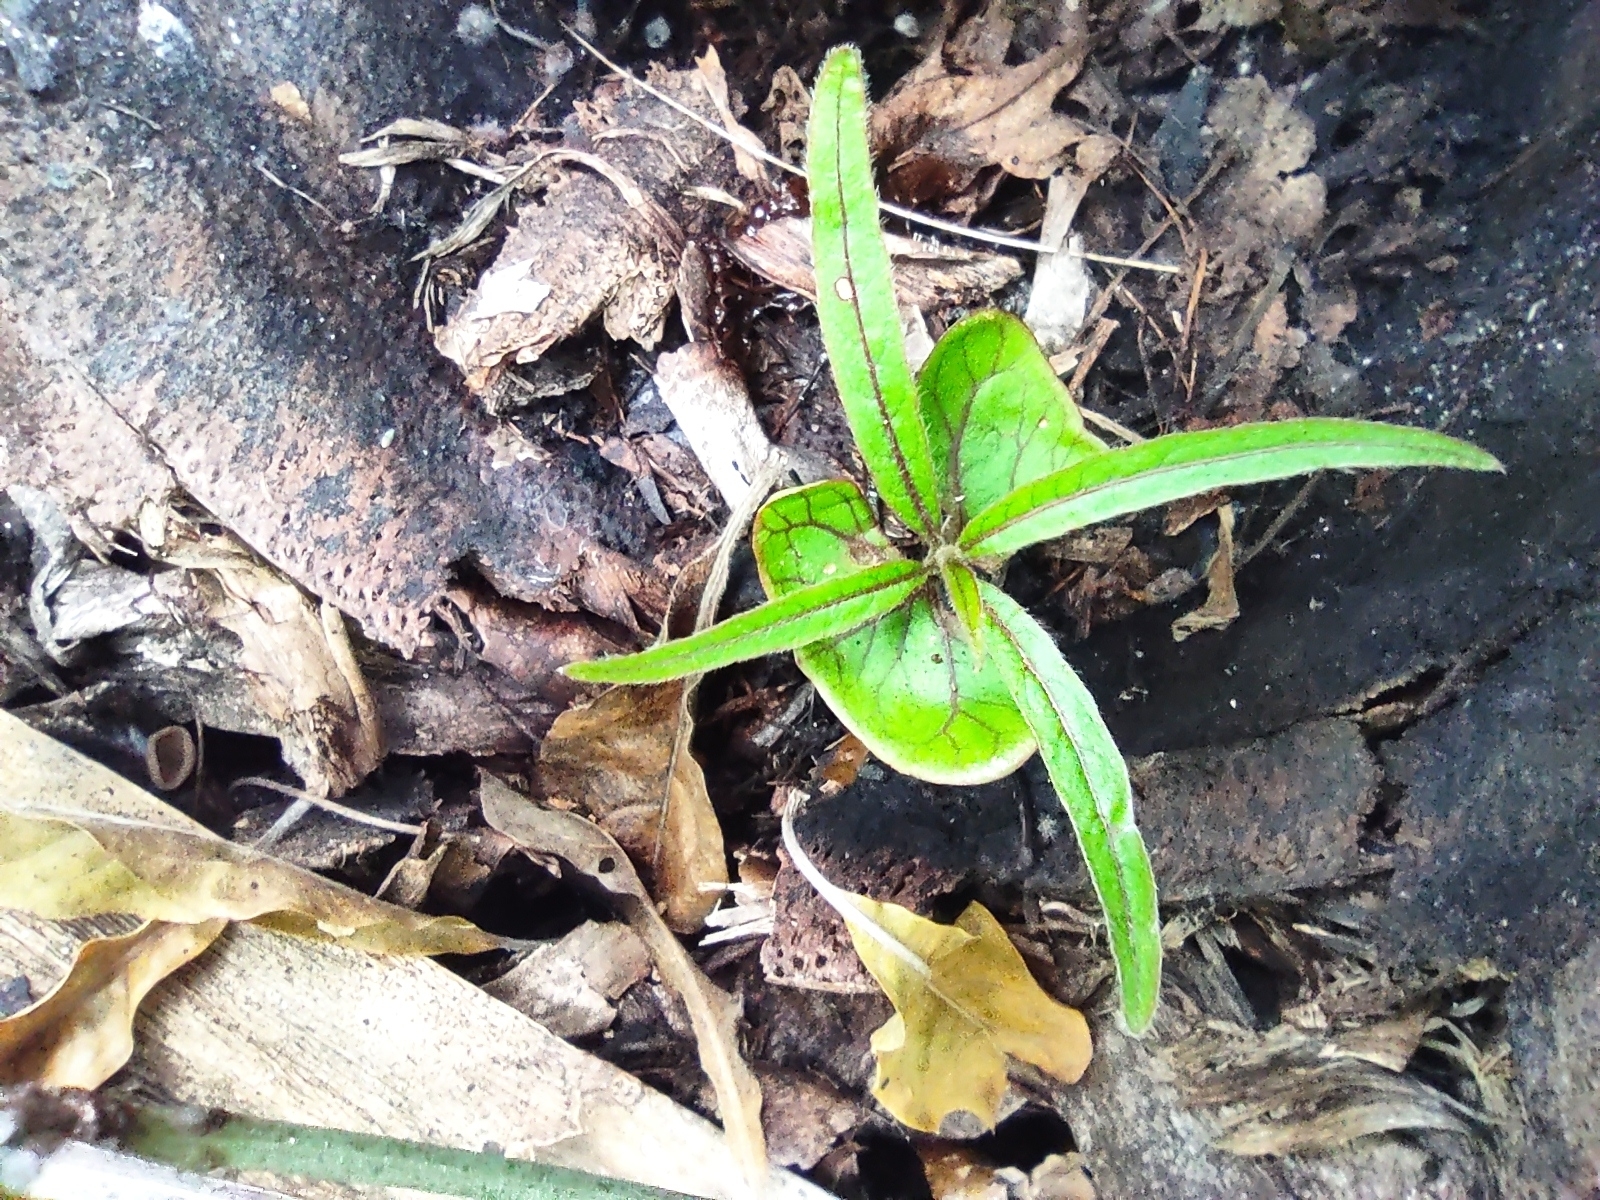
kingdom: Plantae
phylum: Tracheophyta
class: Magnoliopsida
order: Myrtales
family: Combretaceae
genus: Terminalia
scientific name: Terminalia bentzoe
